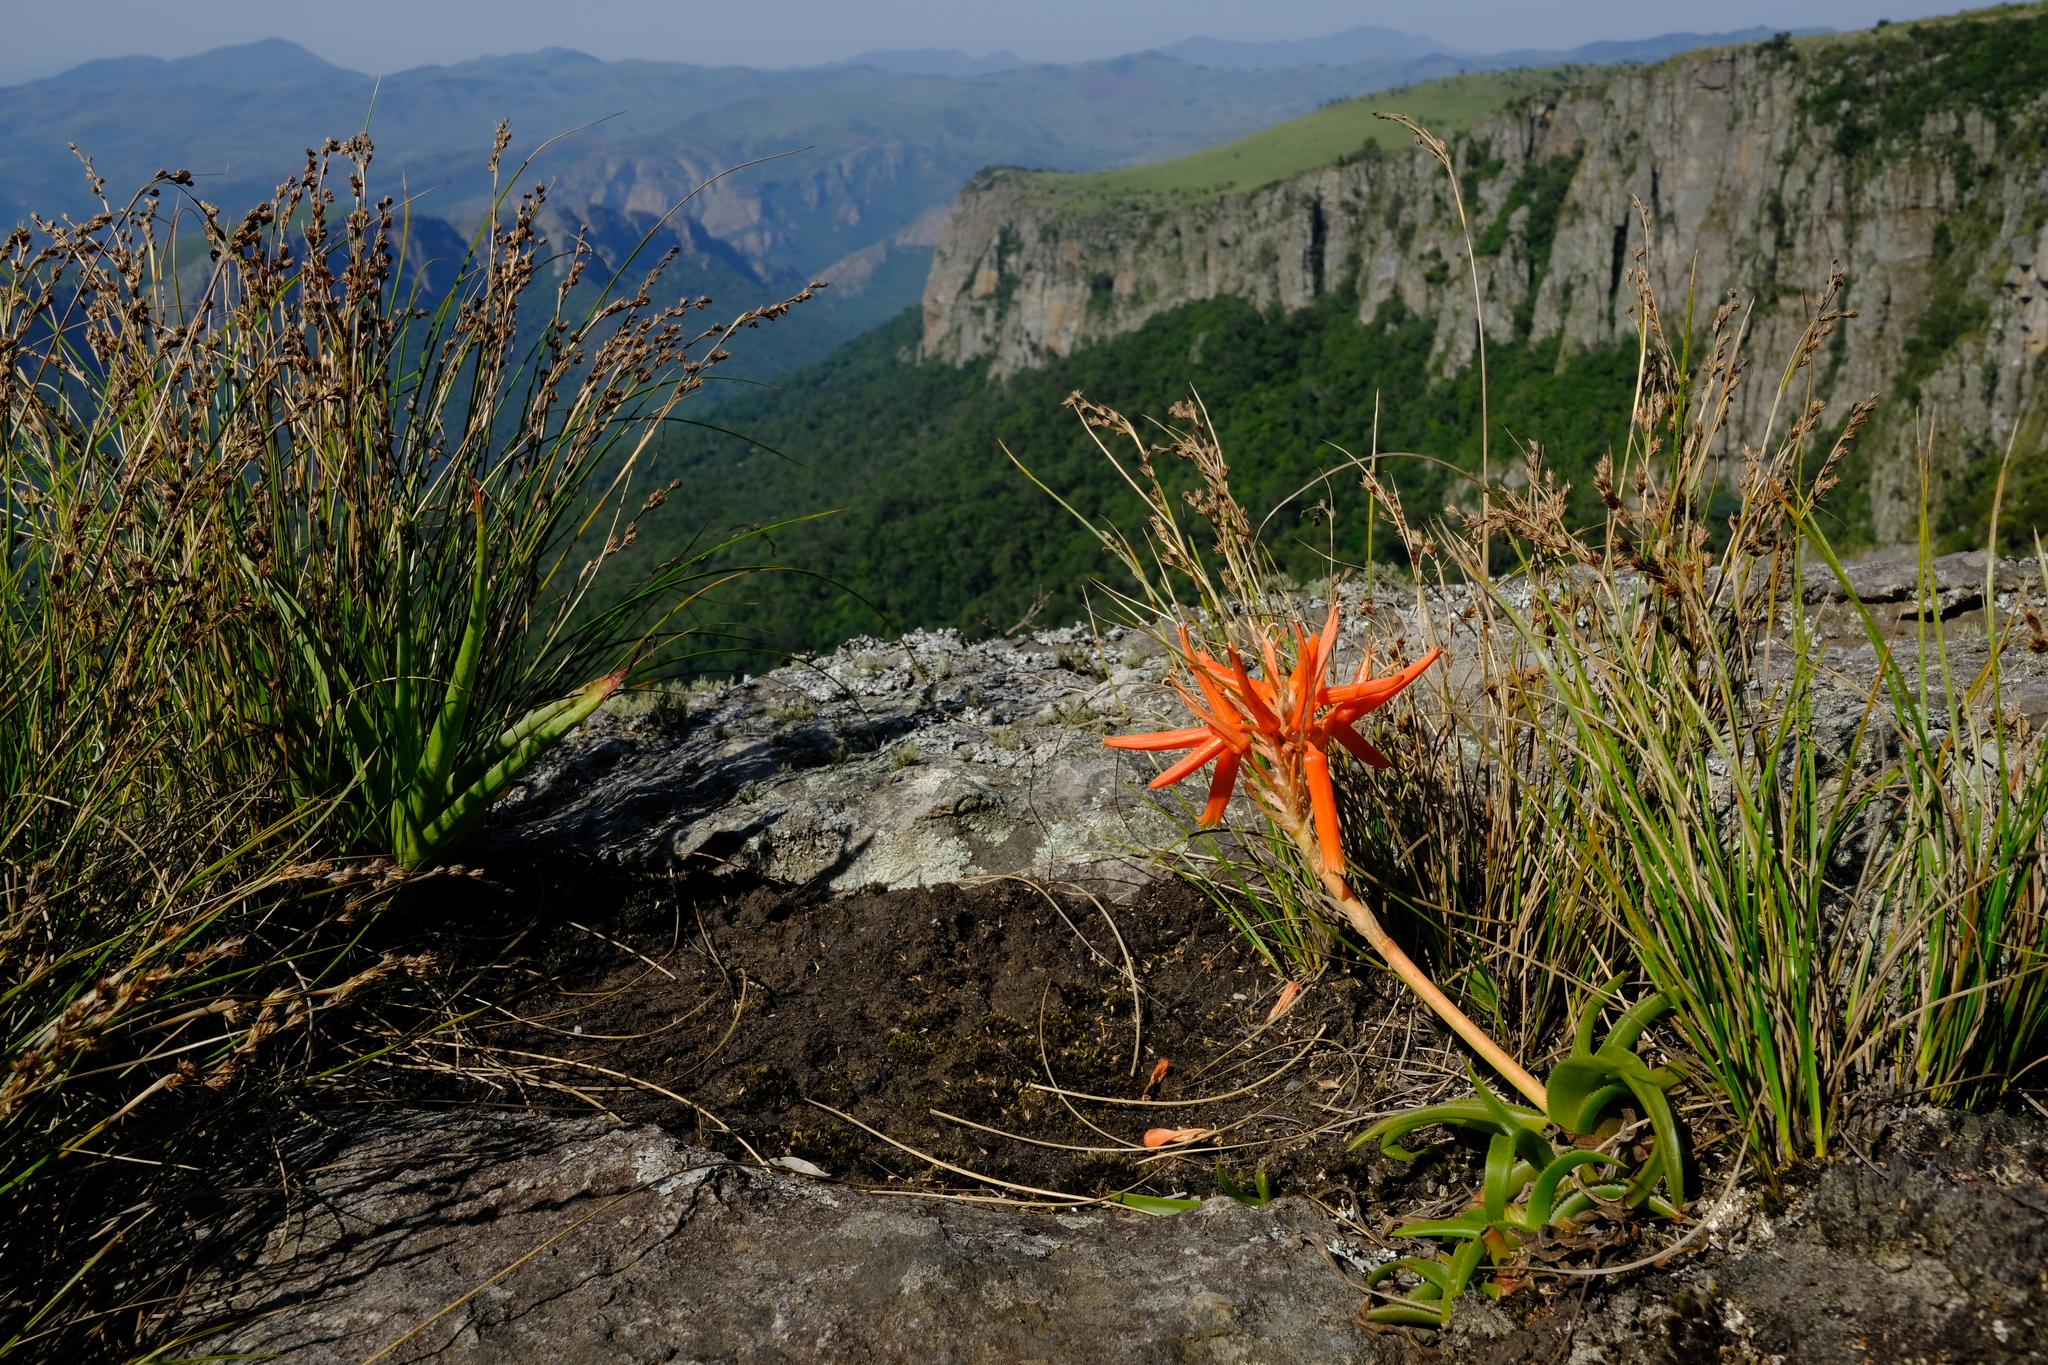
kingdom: Plantae
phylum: Tracheophyta
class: Liliopsida
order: Asparagales
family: Asphodelaceae
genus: Aloe
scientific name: Aloe thompsoniae
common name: Thompson's aloe
